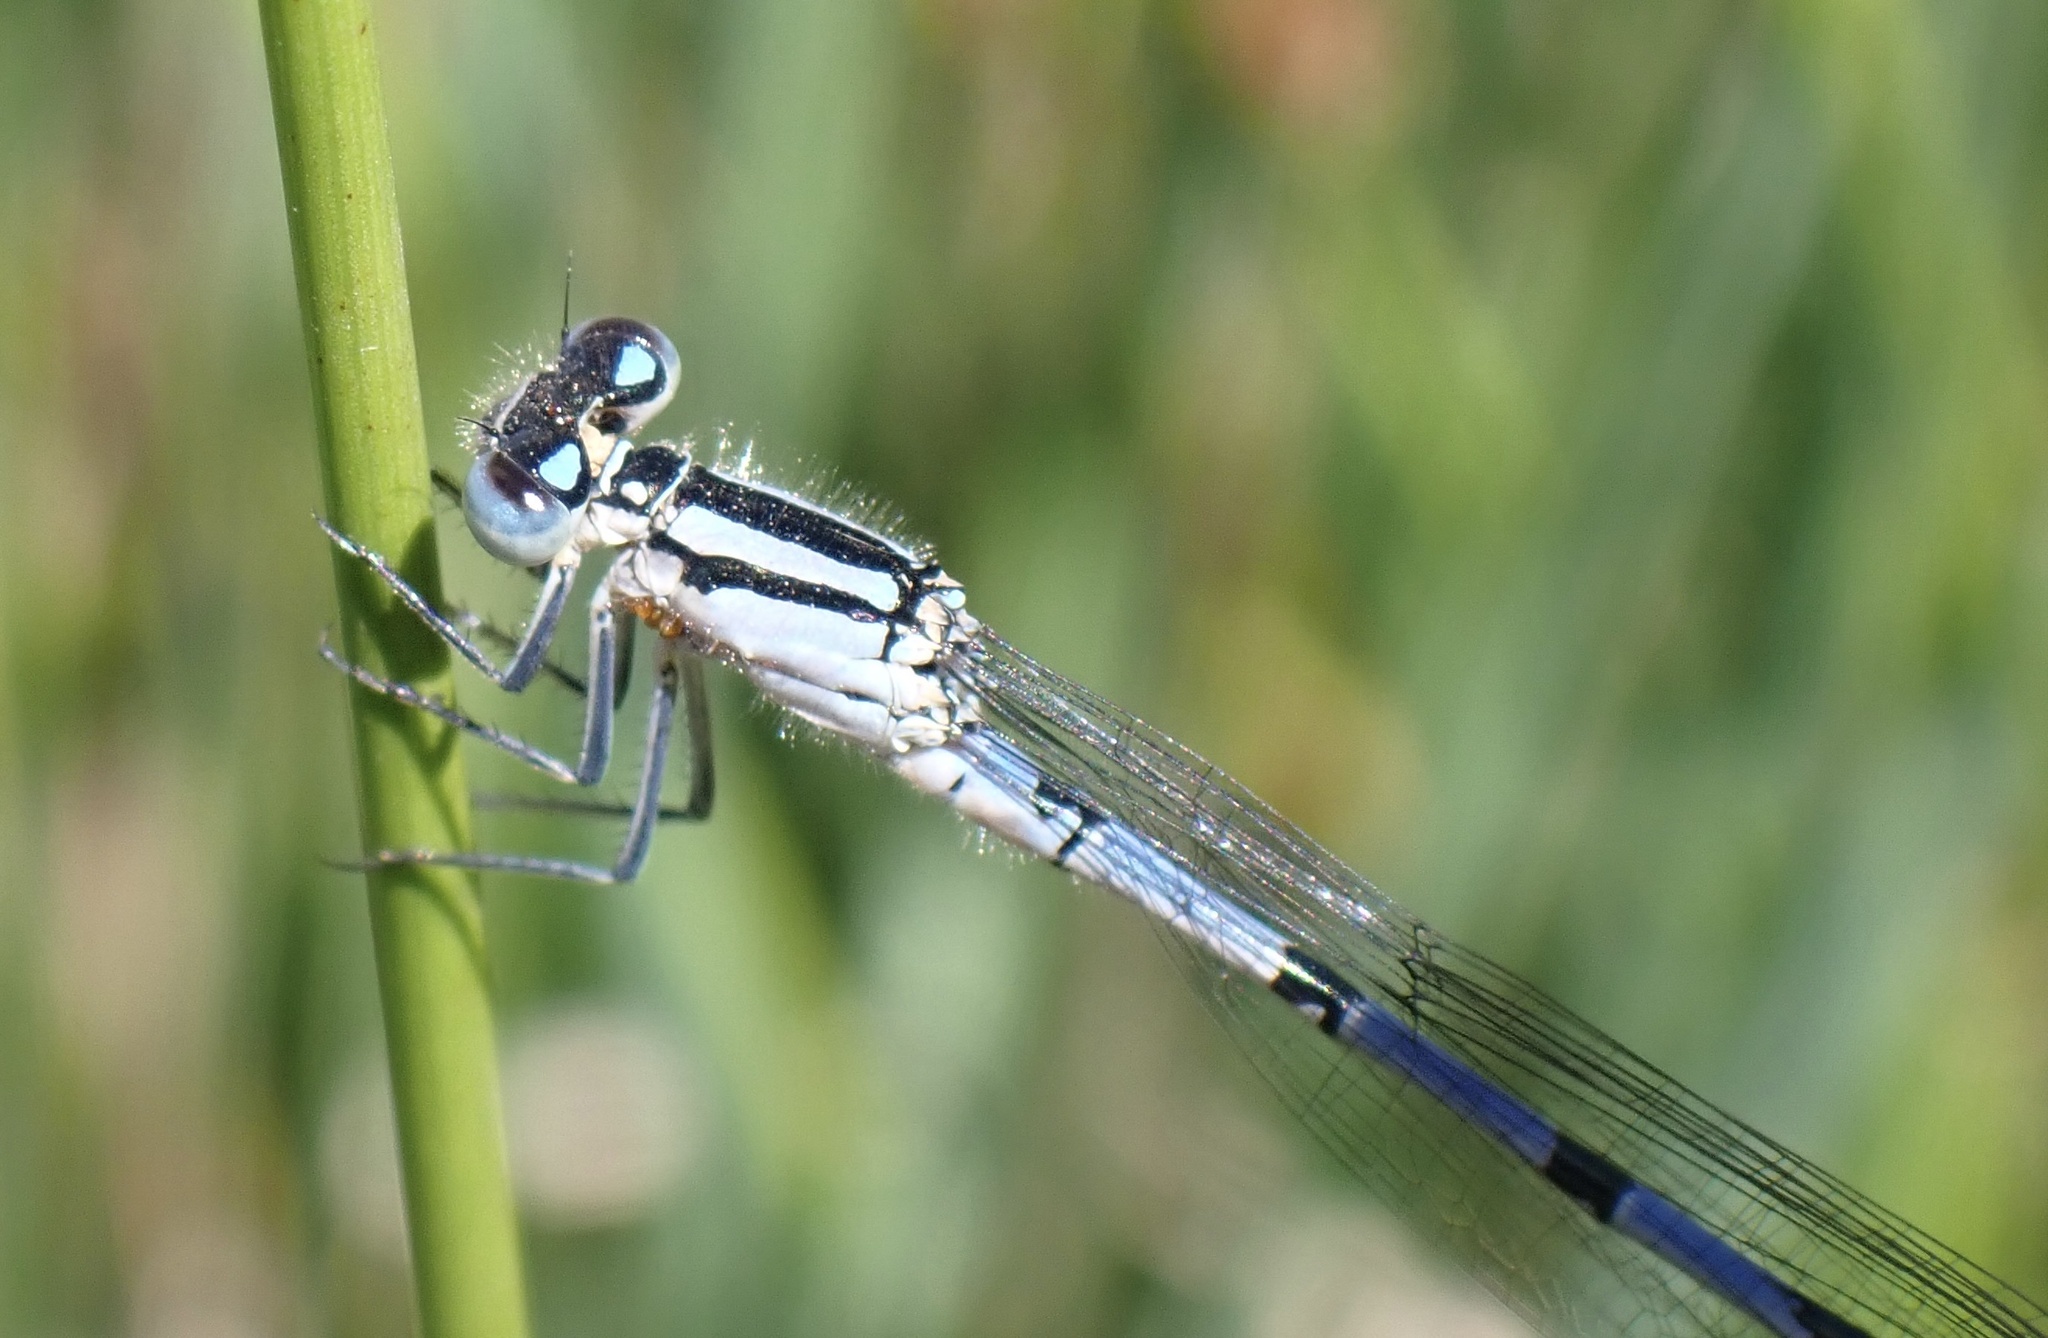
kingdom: Animalia
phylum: Arthropoda
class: Insecta
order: Odonata
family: Coenagrionidae
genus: Enallagma
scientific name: Enallagma cyathigerum
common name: Common blue damselfly
